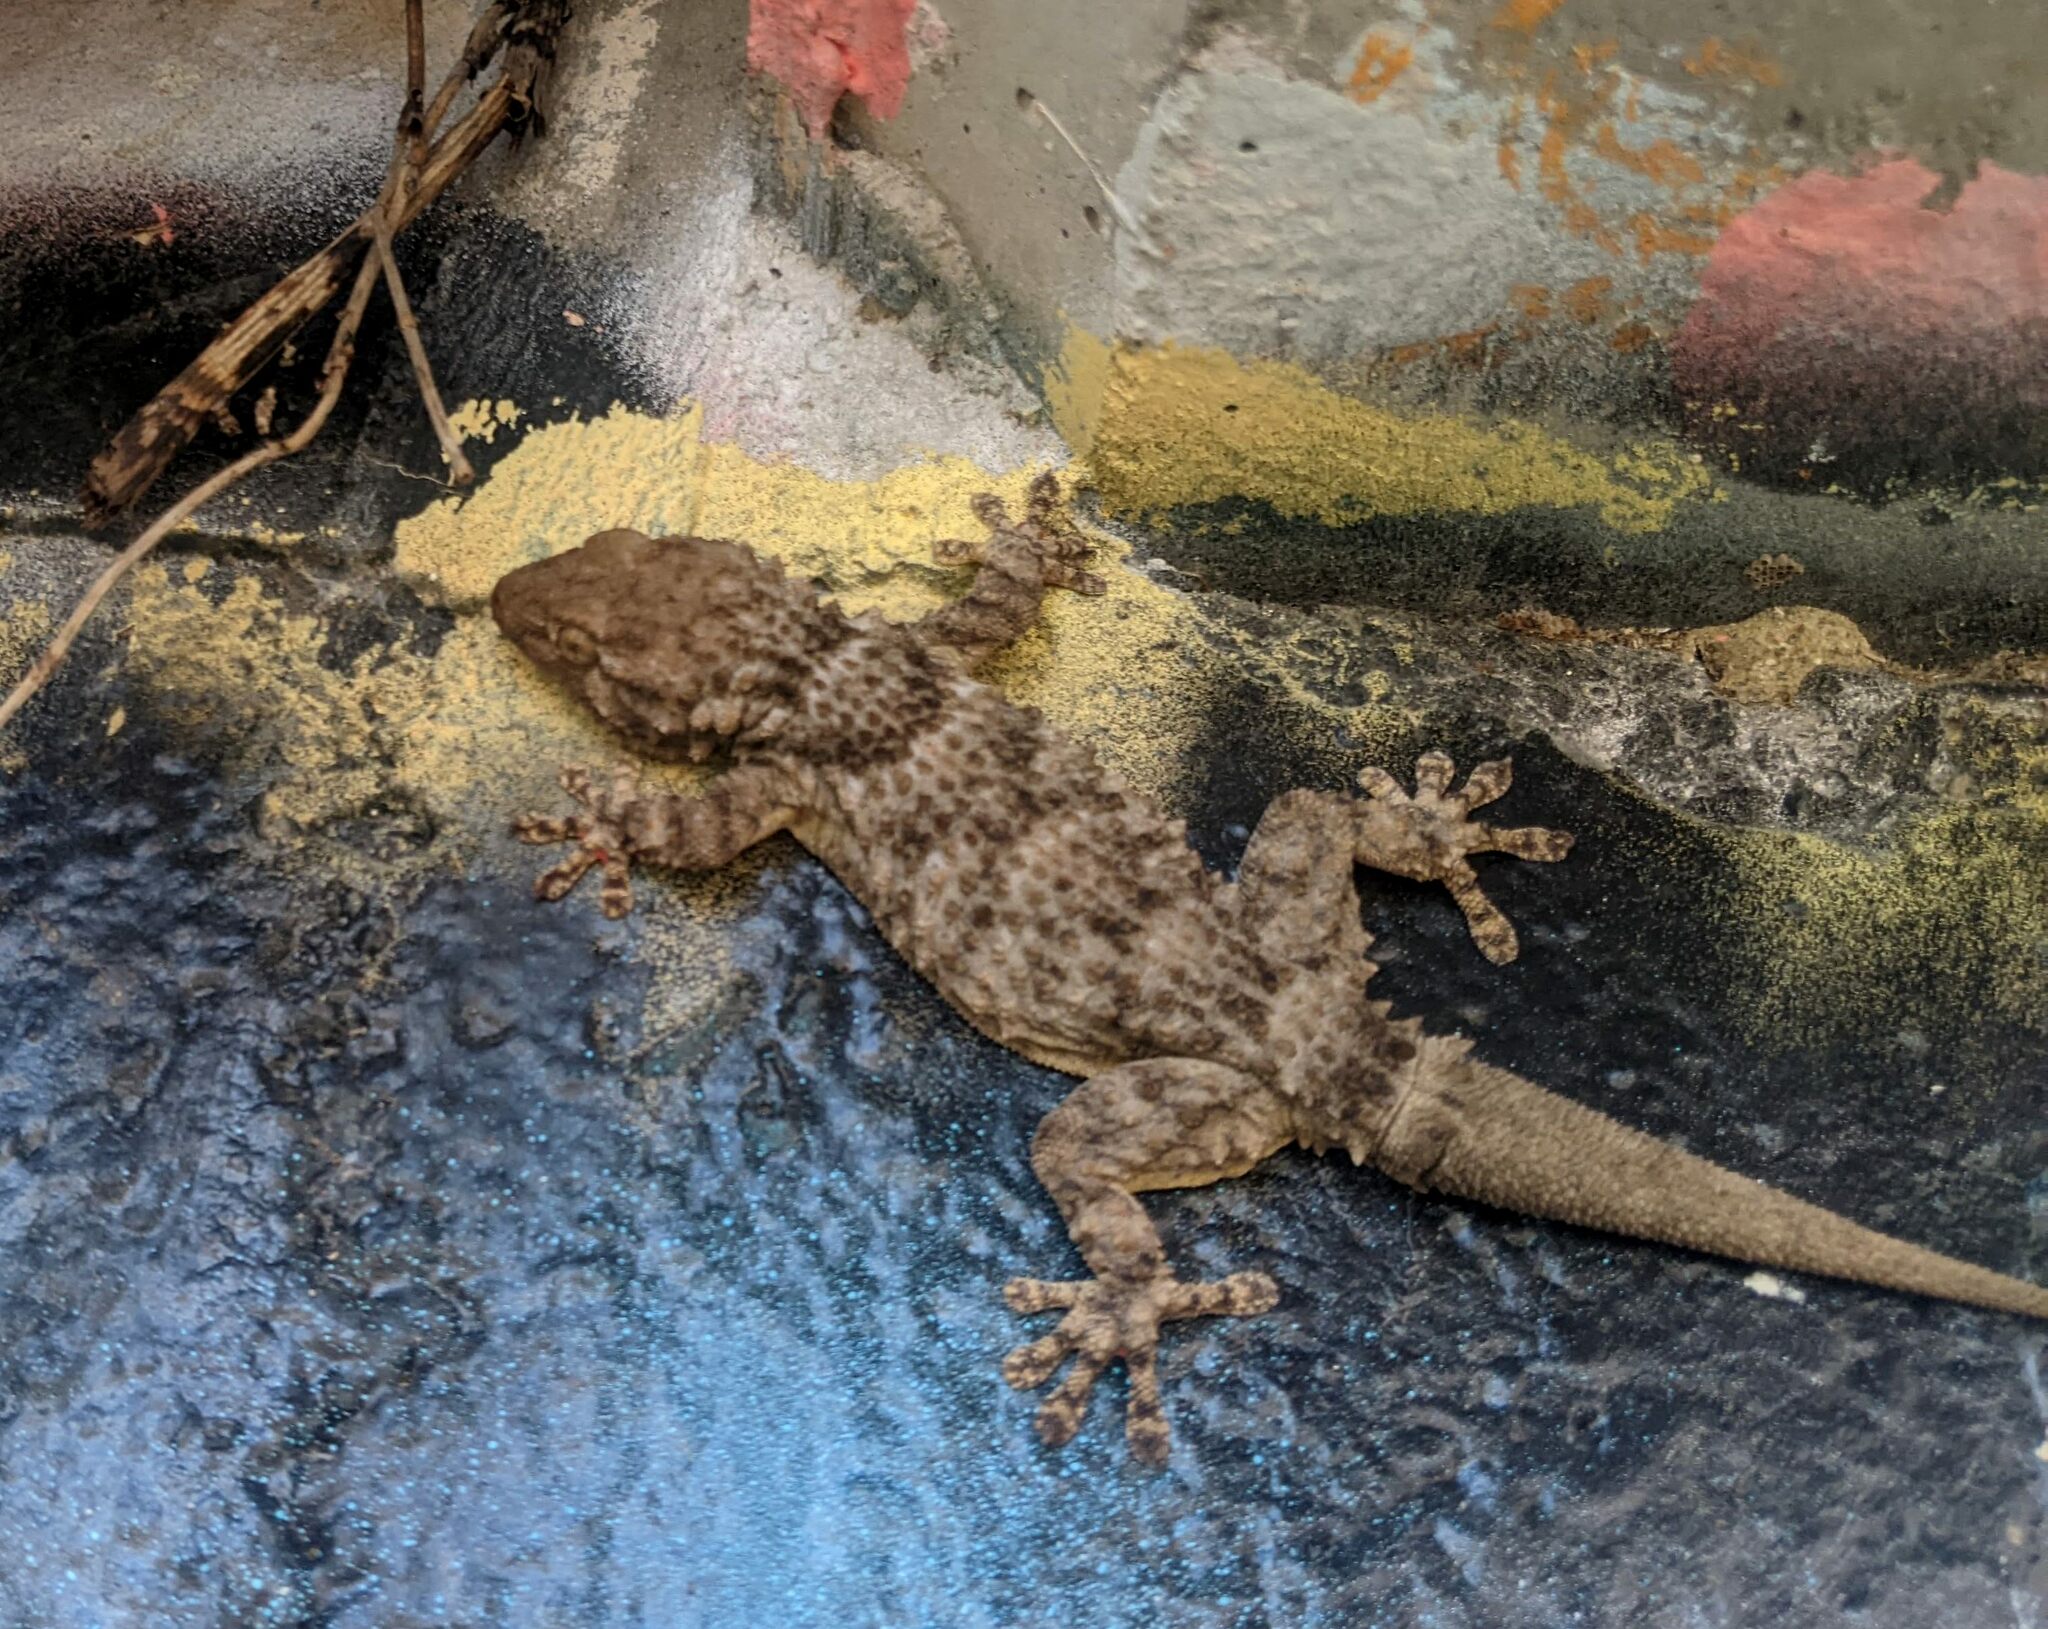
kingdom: Animalia
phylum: Chordata
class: Squamata
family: Phyllodactylidae
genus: Tarentola
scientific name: Tarentola mauritanica
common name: Moorish gecko
